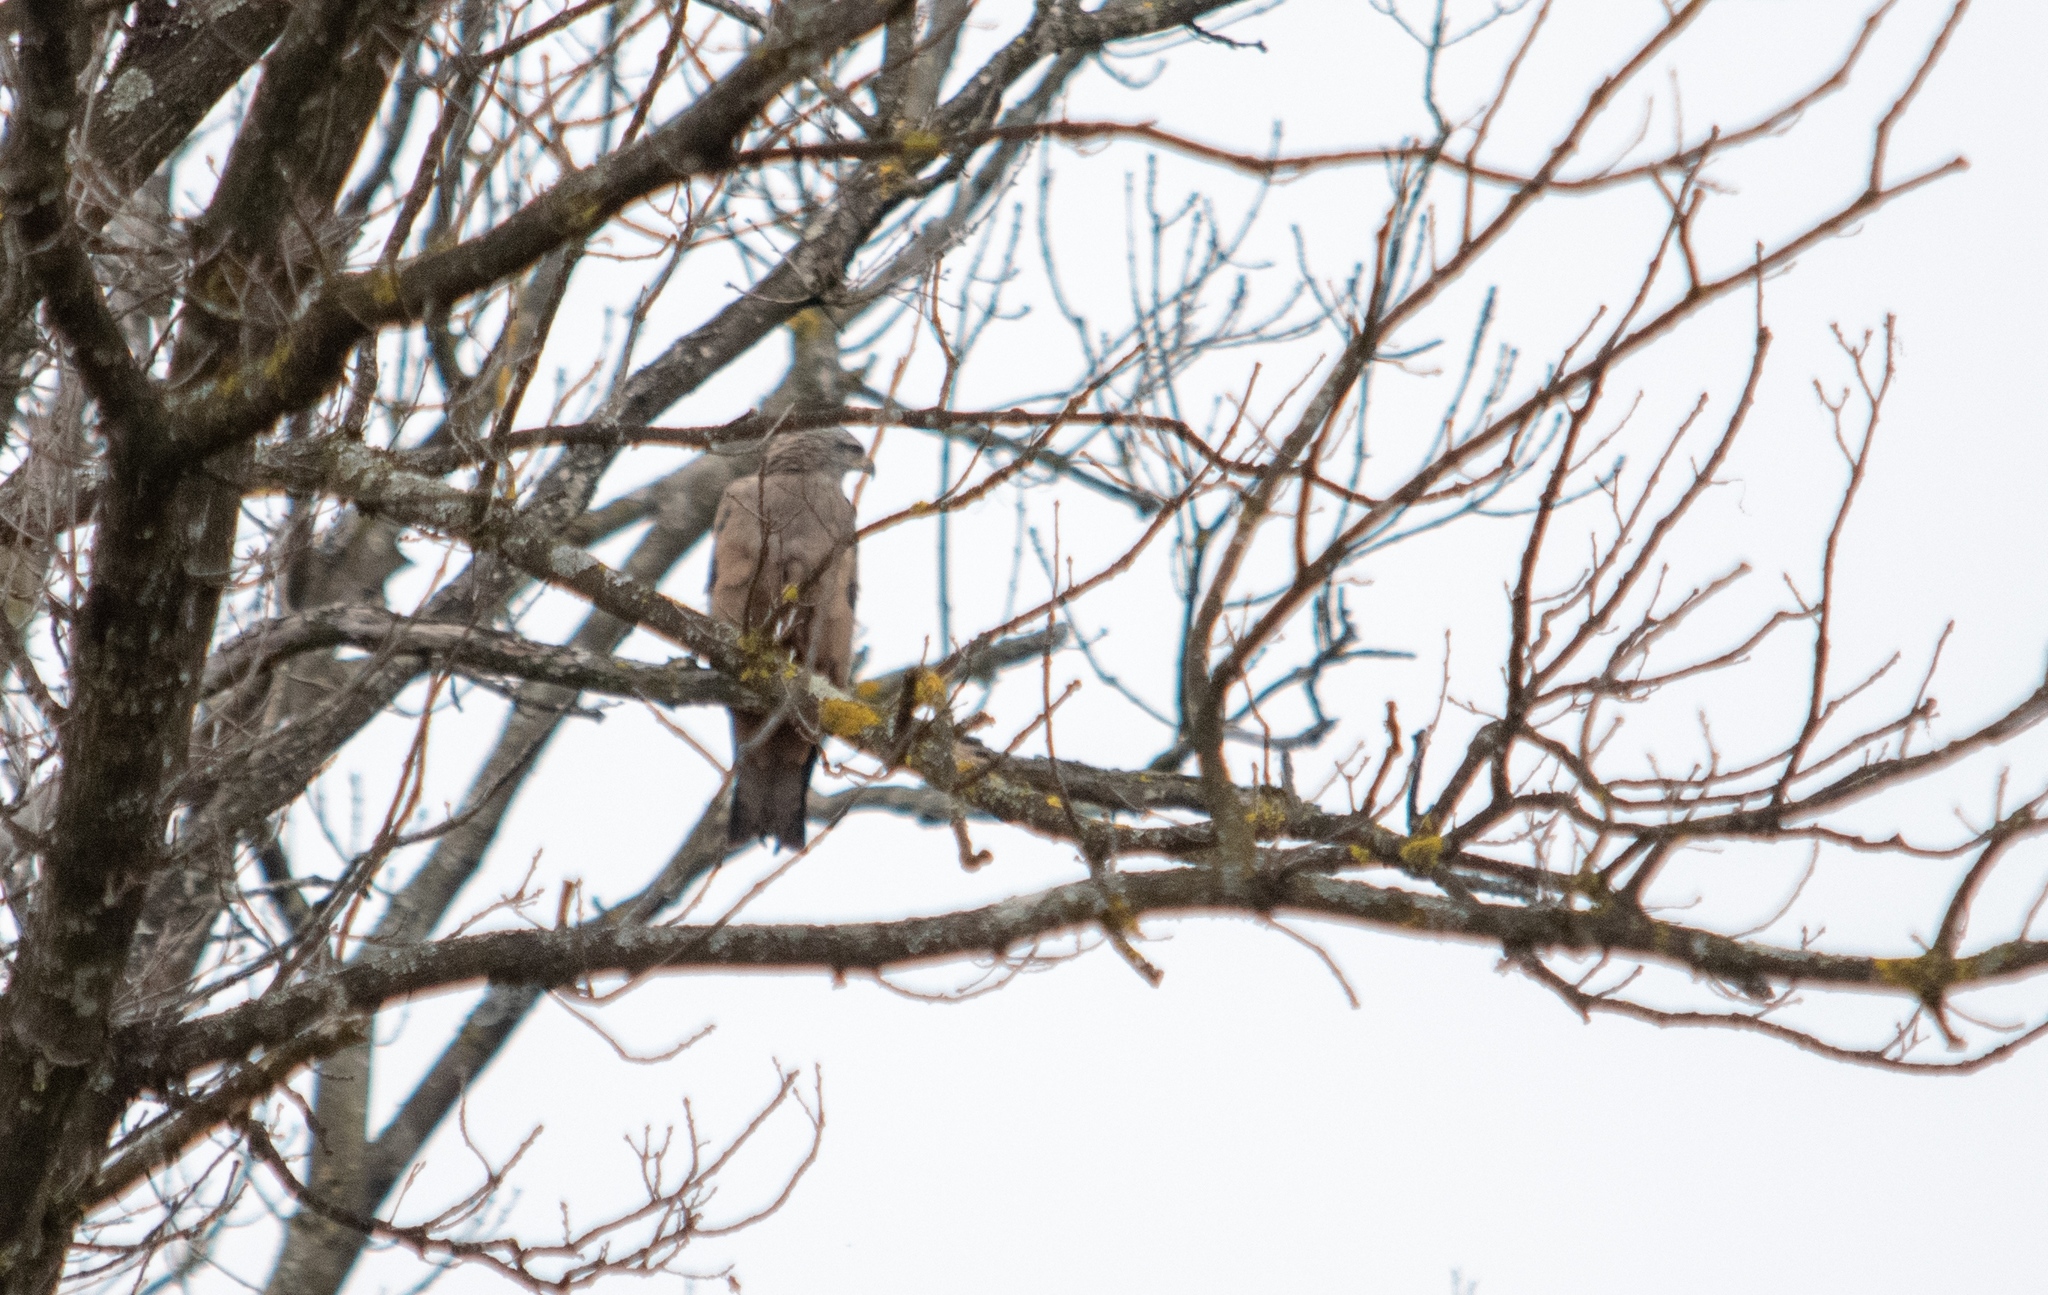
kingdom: Animalia
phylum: Chordata
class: Aves
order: Accipitriformes
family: Accipitridae
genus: Milvus
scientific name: Milvus migrans
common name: Black kite
